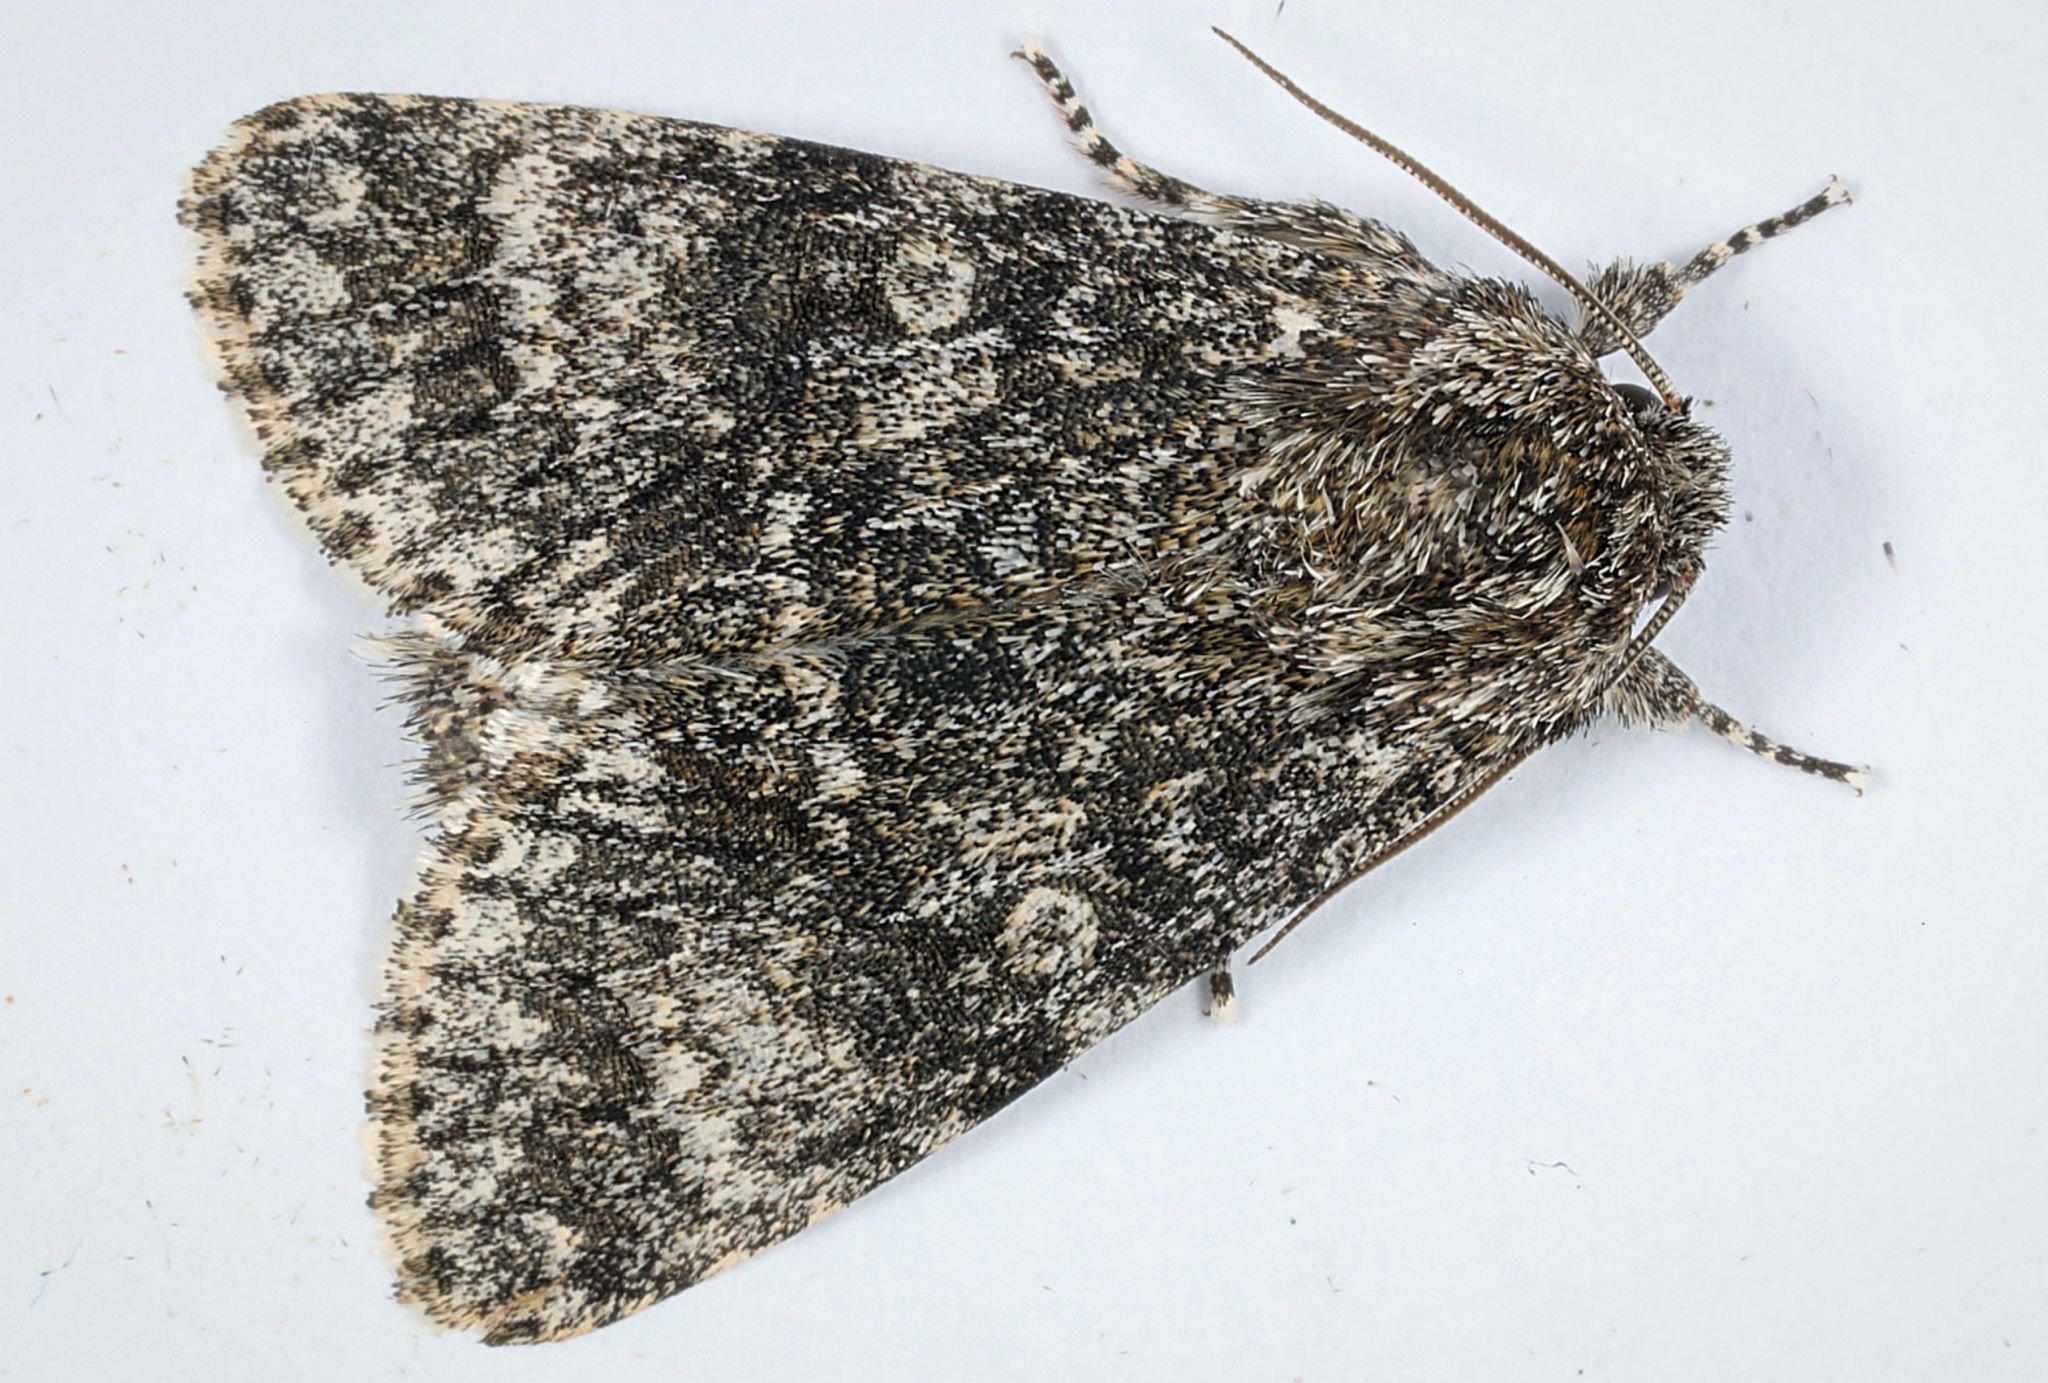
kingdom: Animalia
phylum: Arthropoda
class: Insecta
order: Lepidoptera
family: Noctuidae
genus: Acronicta
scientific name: Acronicta megacephala
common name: Poplar grey
